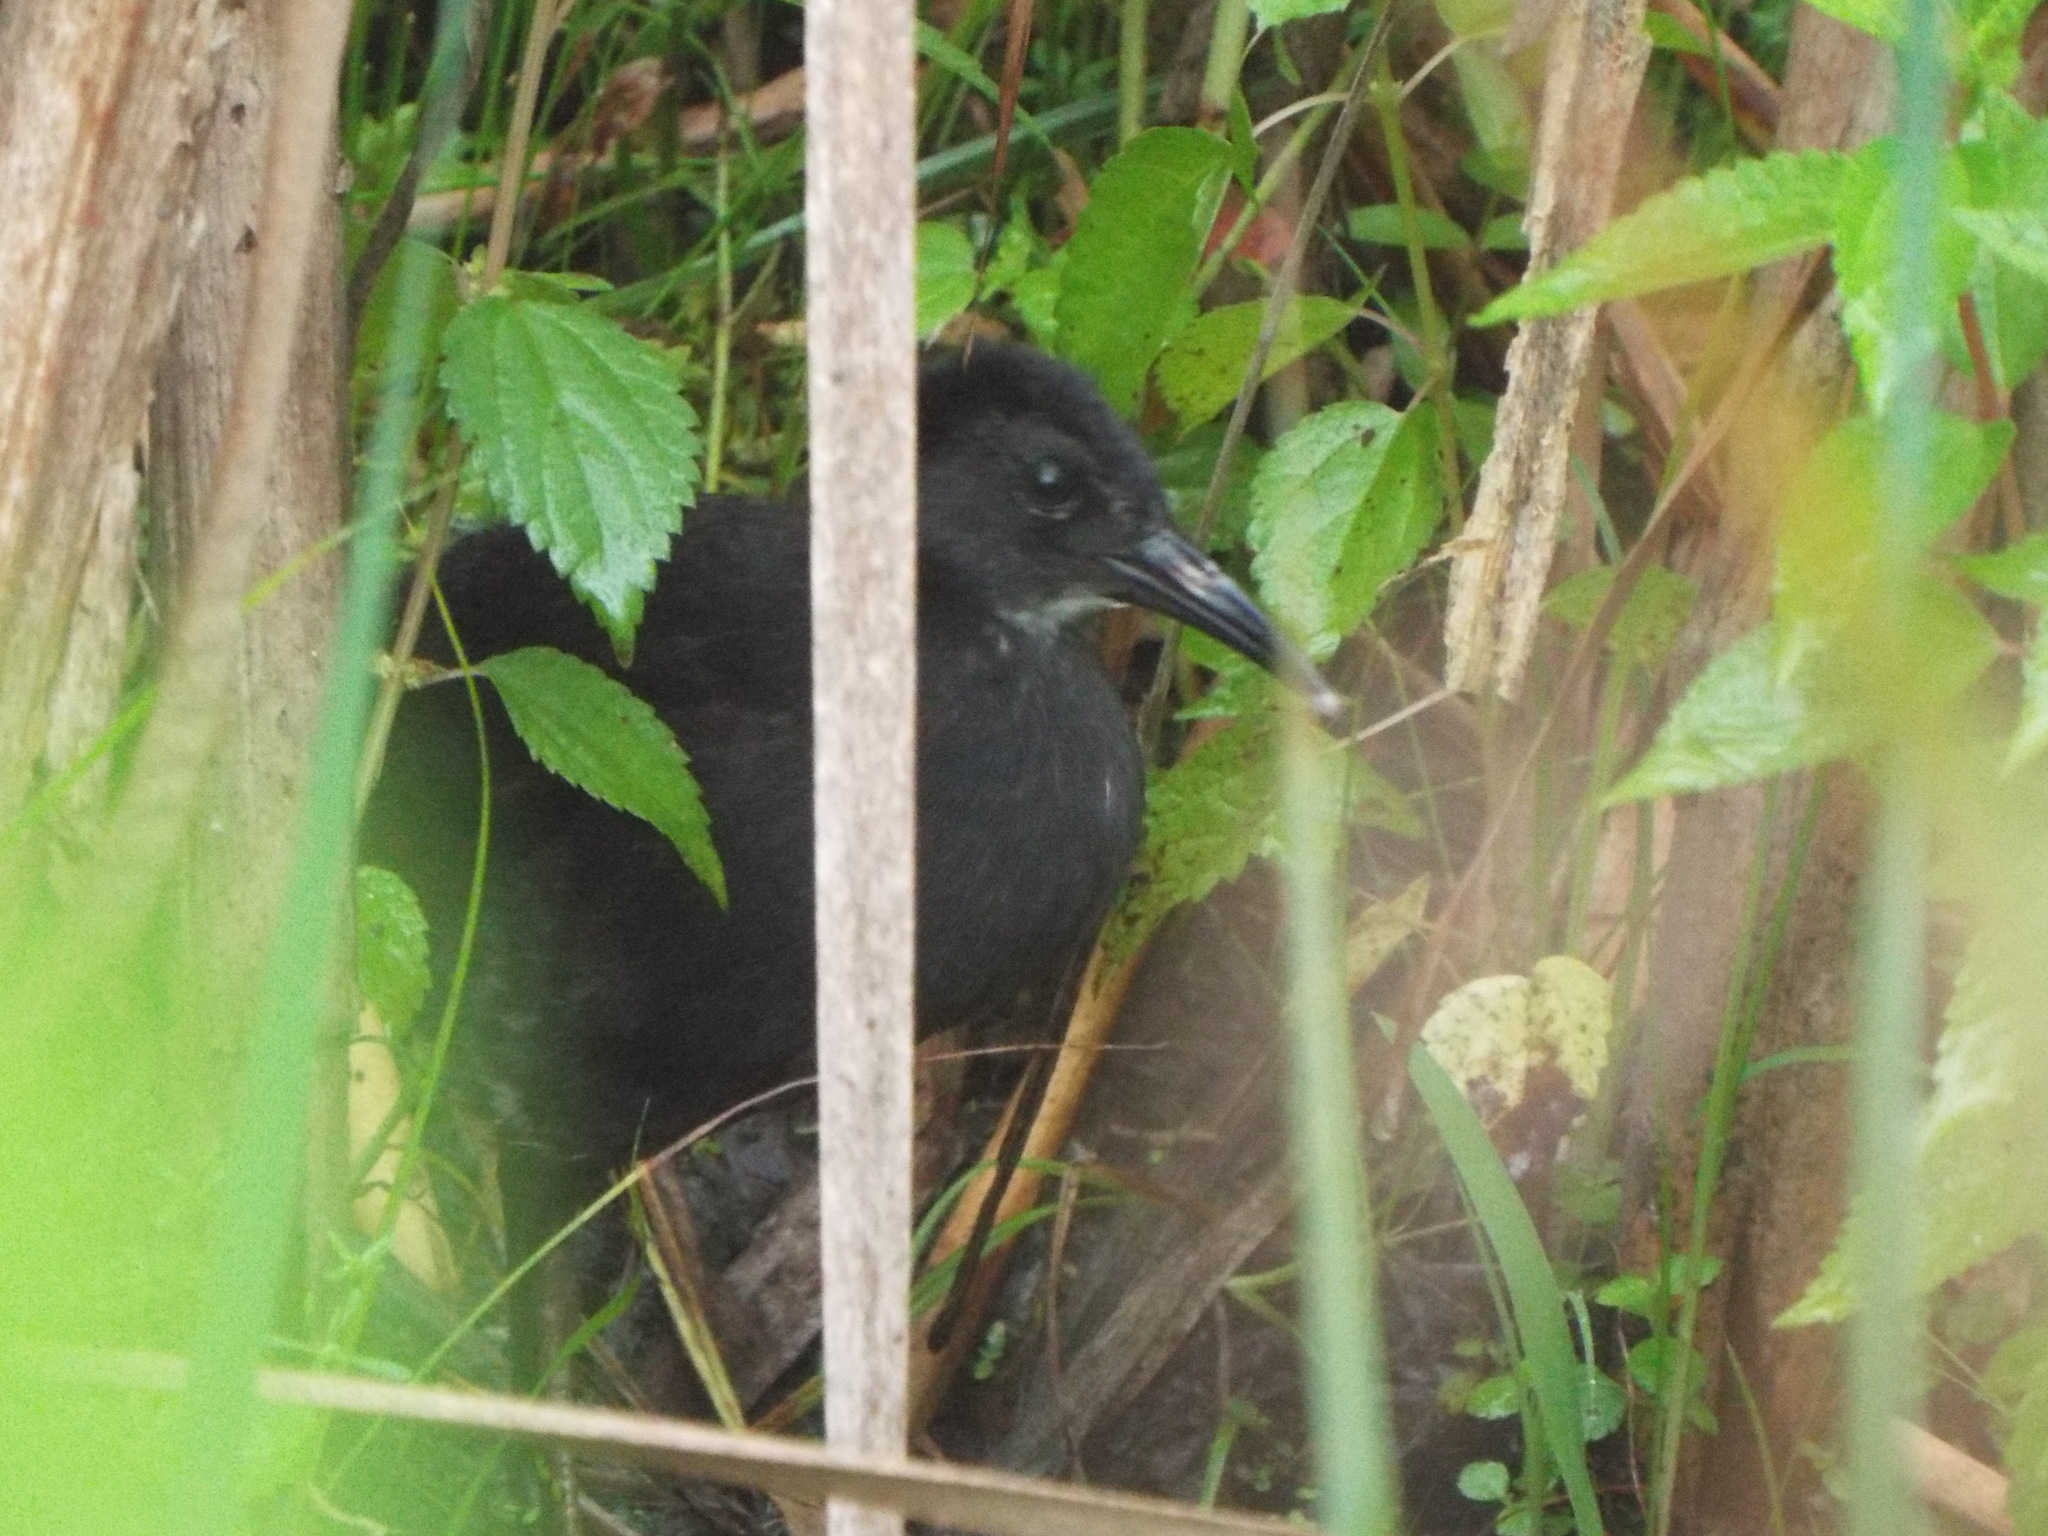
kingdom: Animalia
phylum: Chordata
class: Aves
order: Gruiformes
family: Rallidae
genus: Rallus
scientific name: Rallus limicola
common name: Virginia rail
